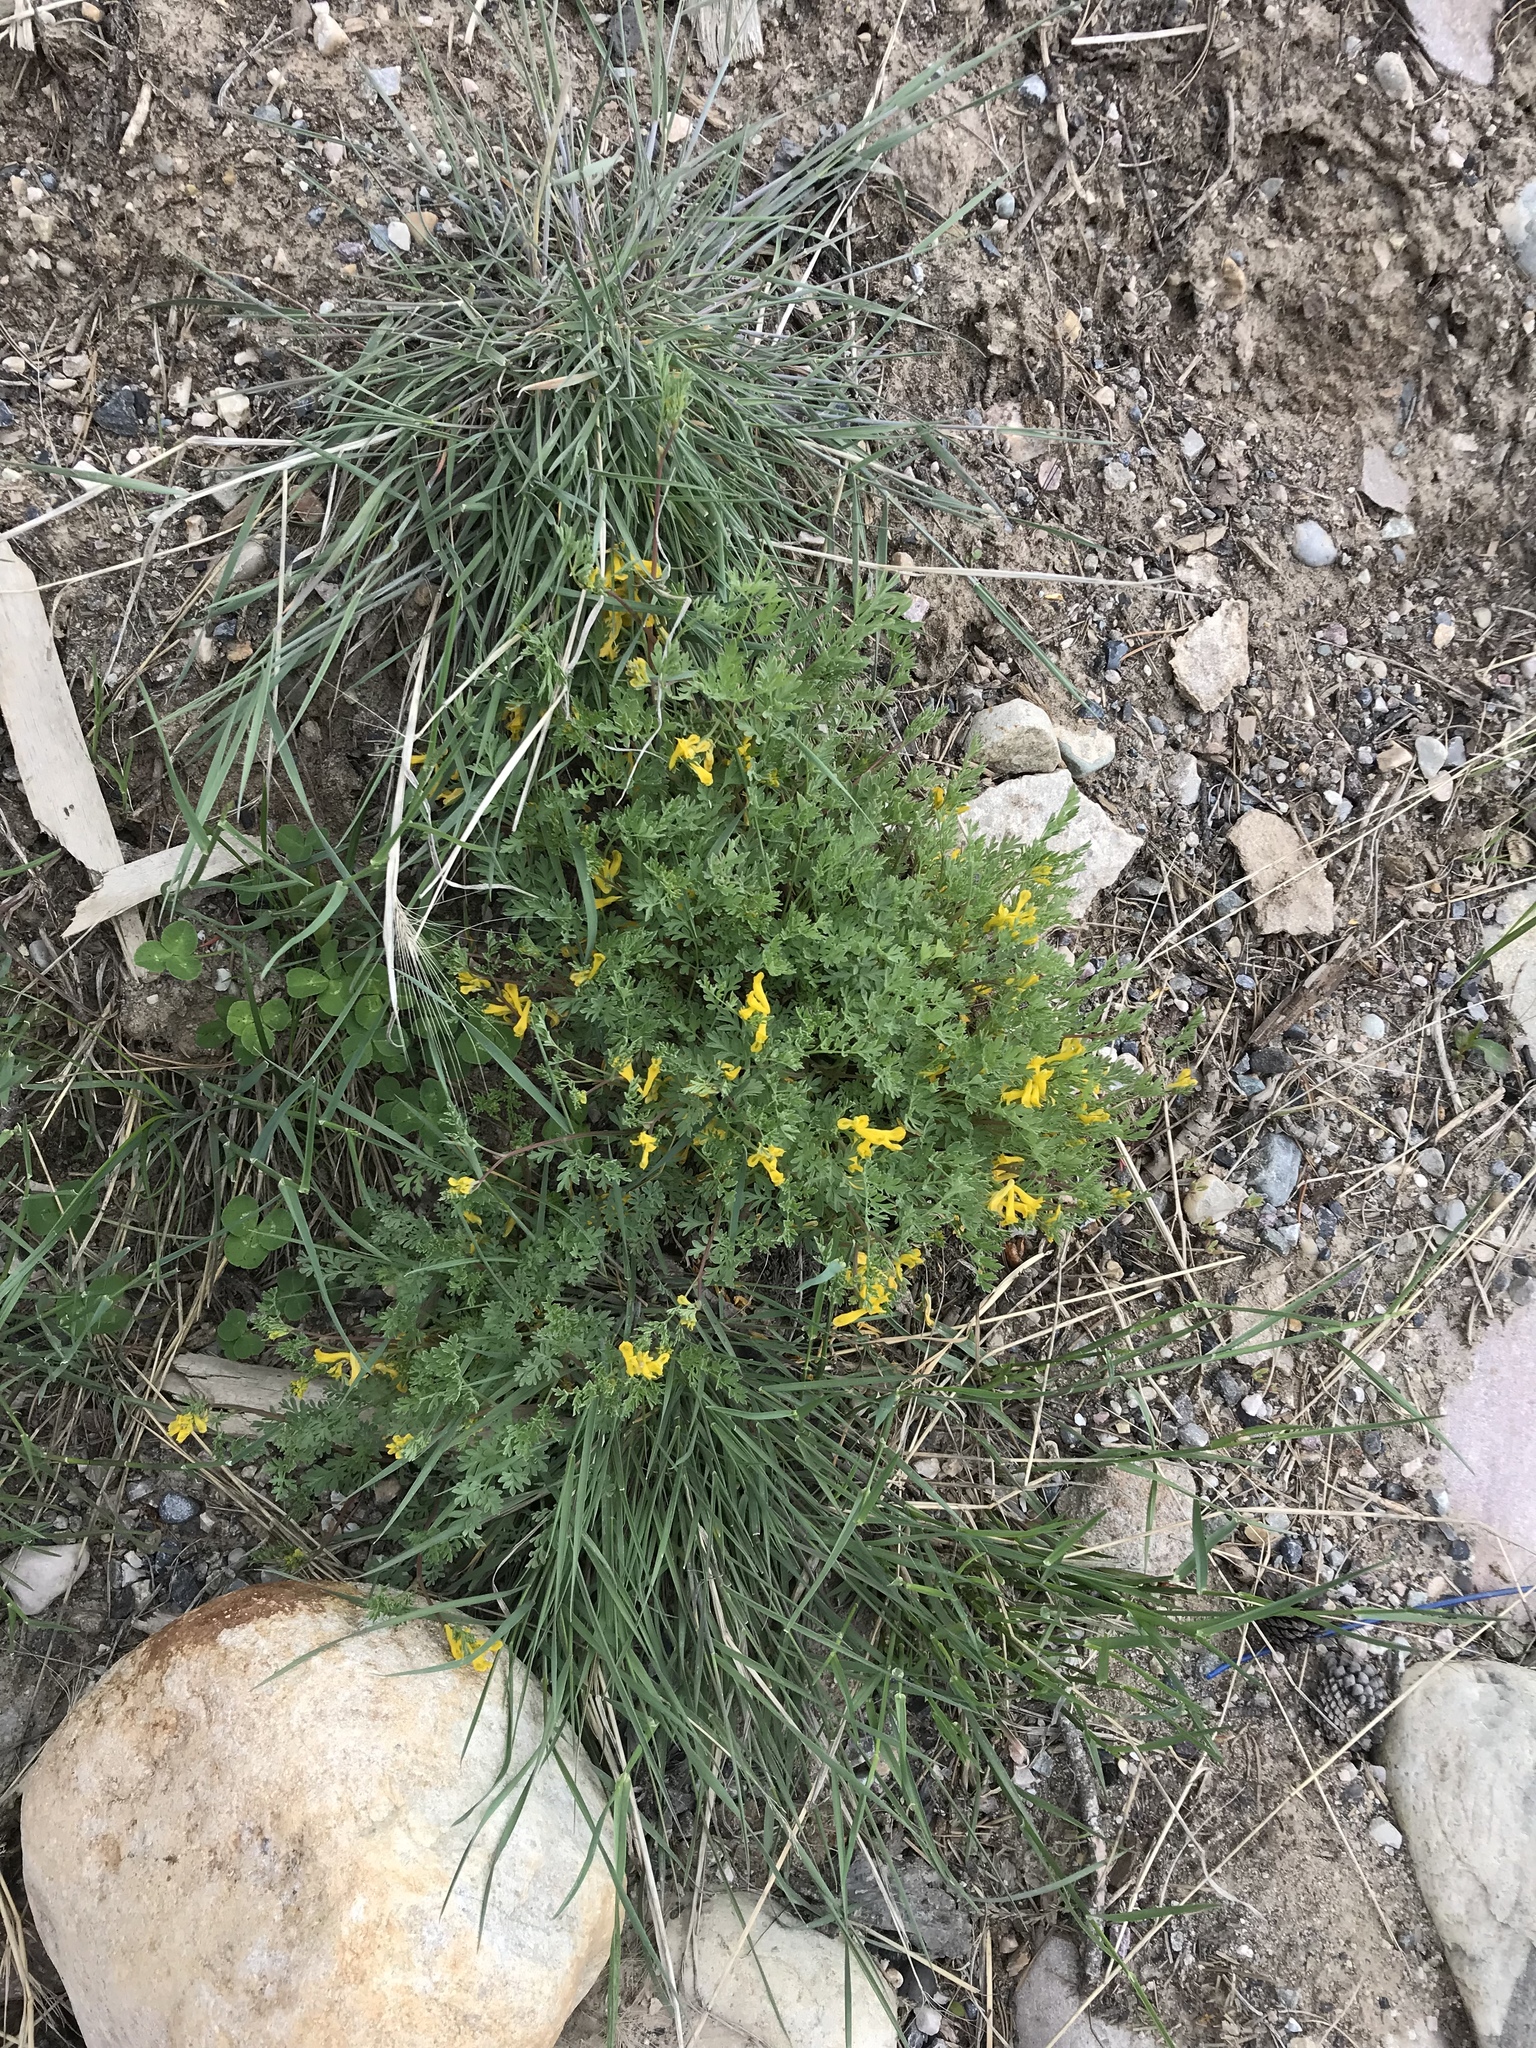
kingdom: Plantae
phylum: Tracheophyta
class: Magnoliopsida
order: Ranunculales
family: Papaveraceae
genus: Corydalis
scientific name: Corydalis aurea
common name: Golden corydalis
